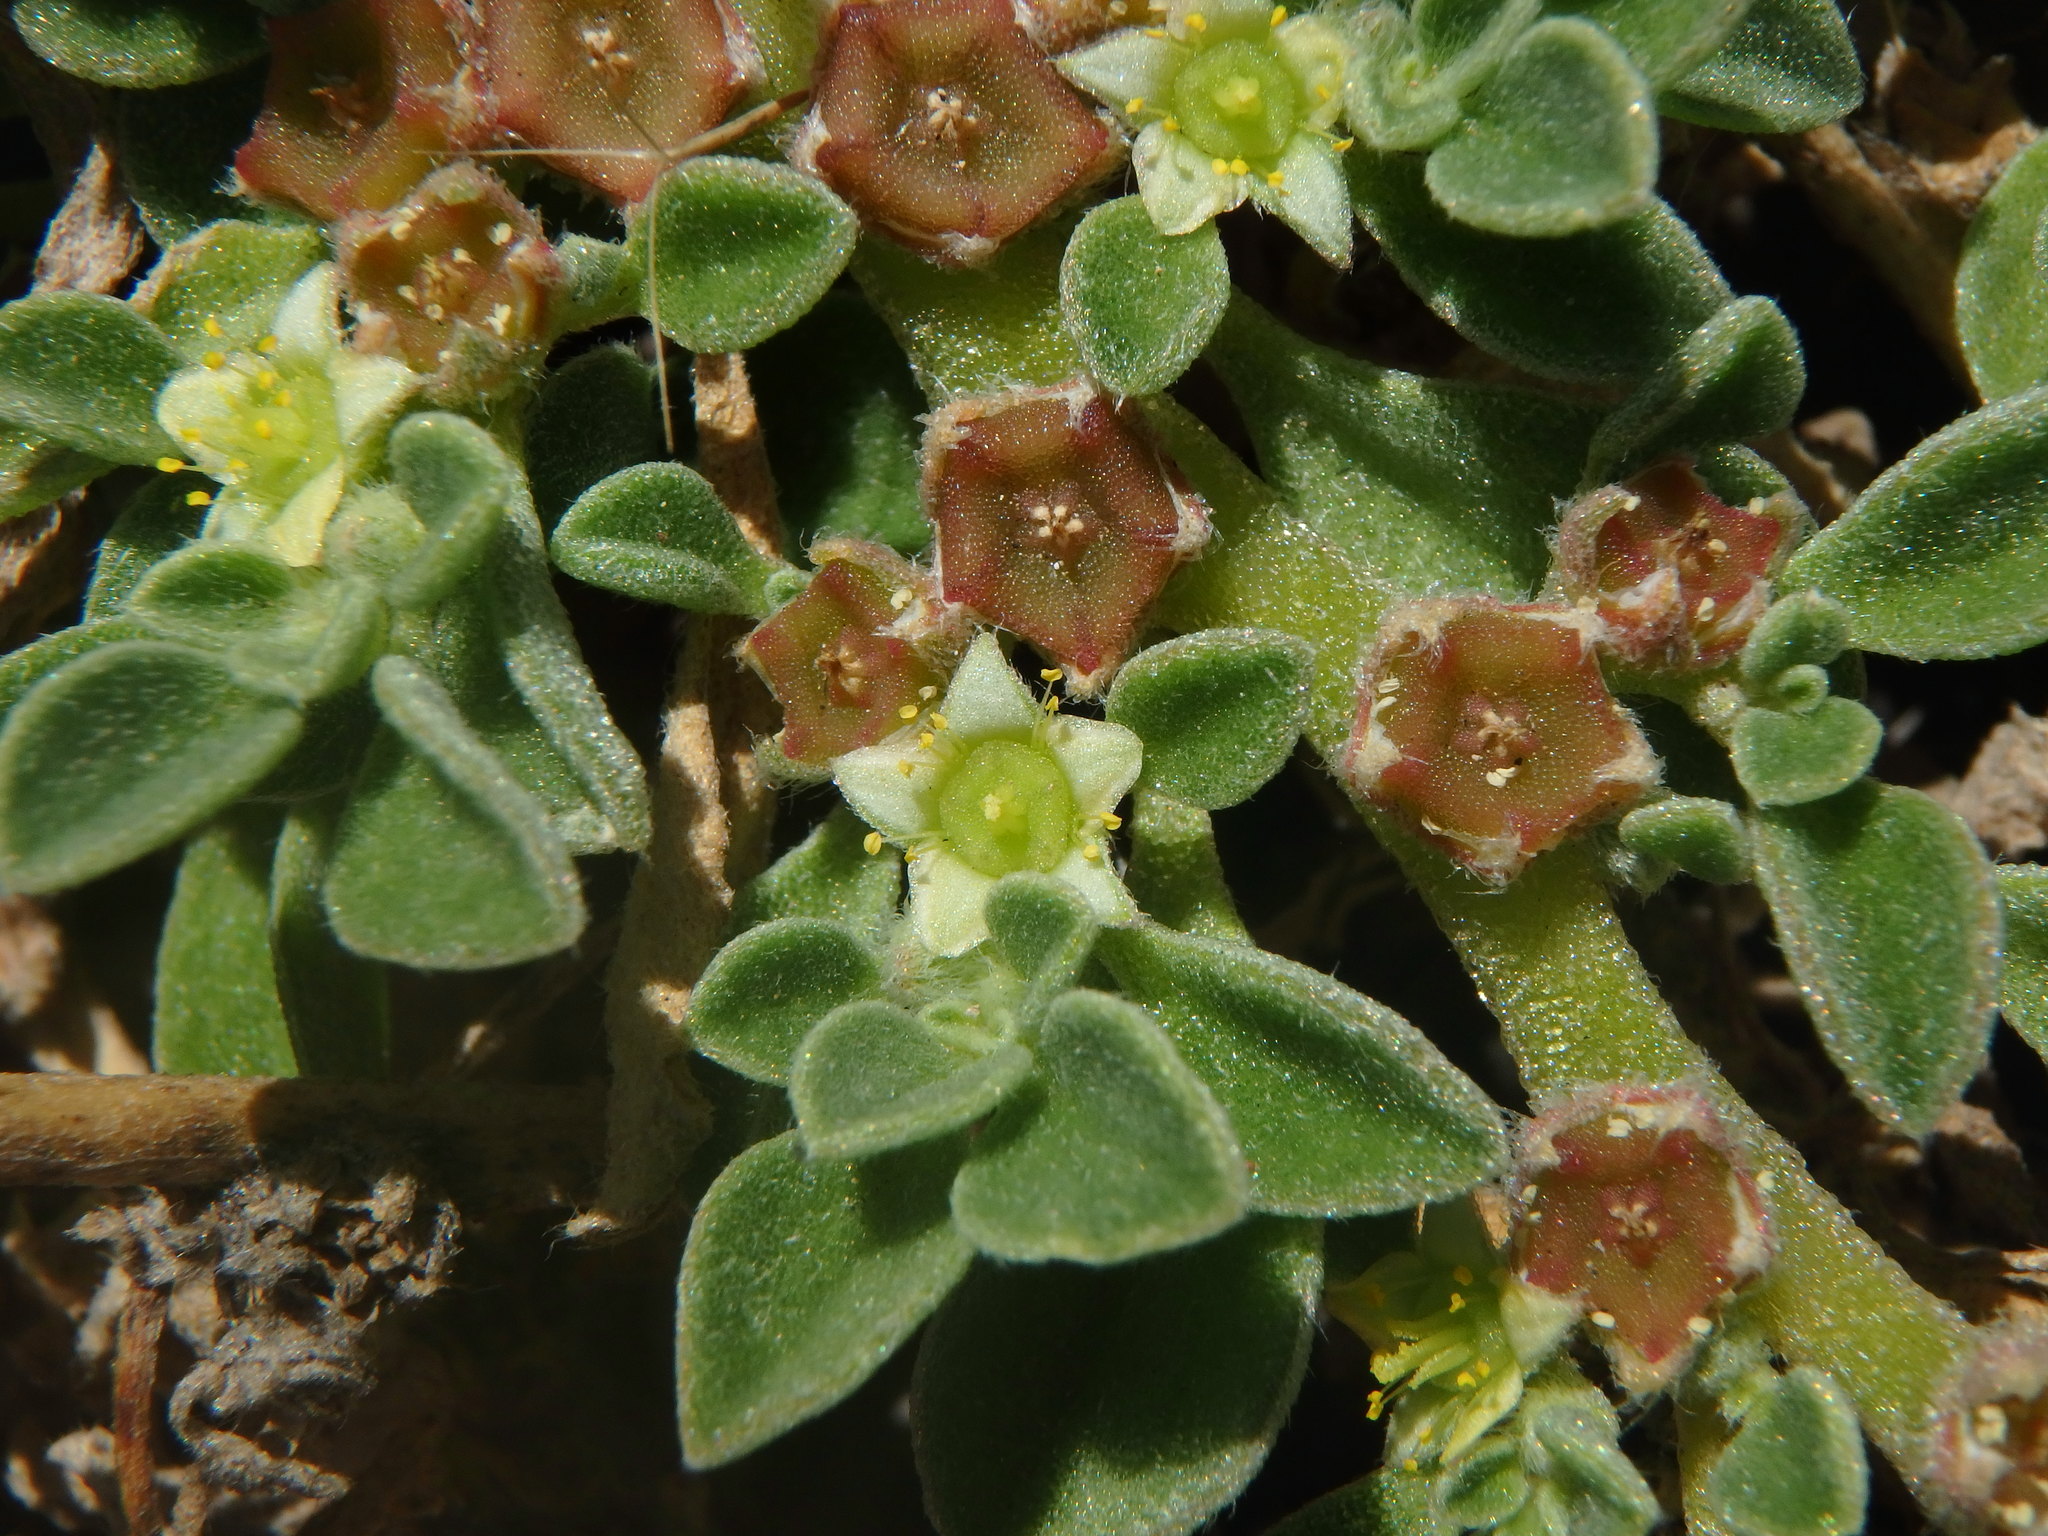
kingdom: Plantae
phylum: Tracheophyta
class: Magnoliopsida
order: Caryophyllales
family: Aizoaceae
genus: Aizoon
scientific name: Aizoon canariense
